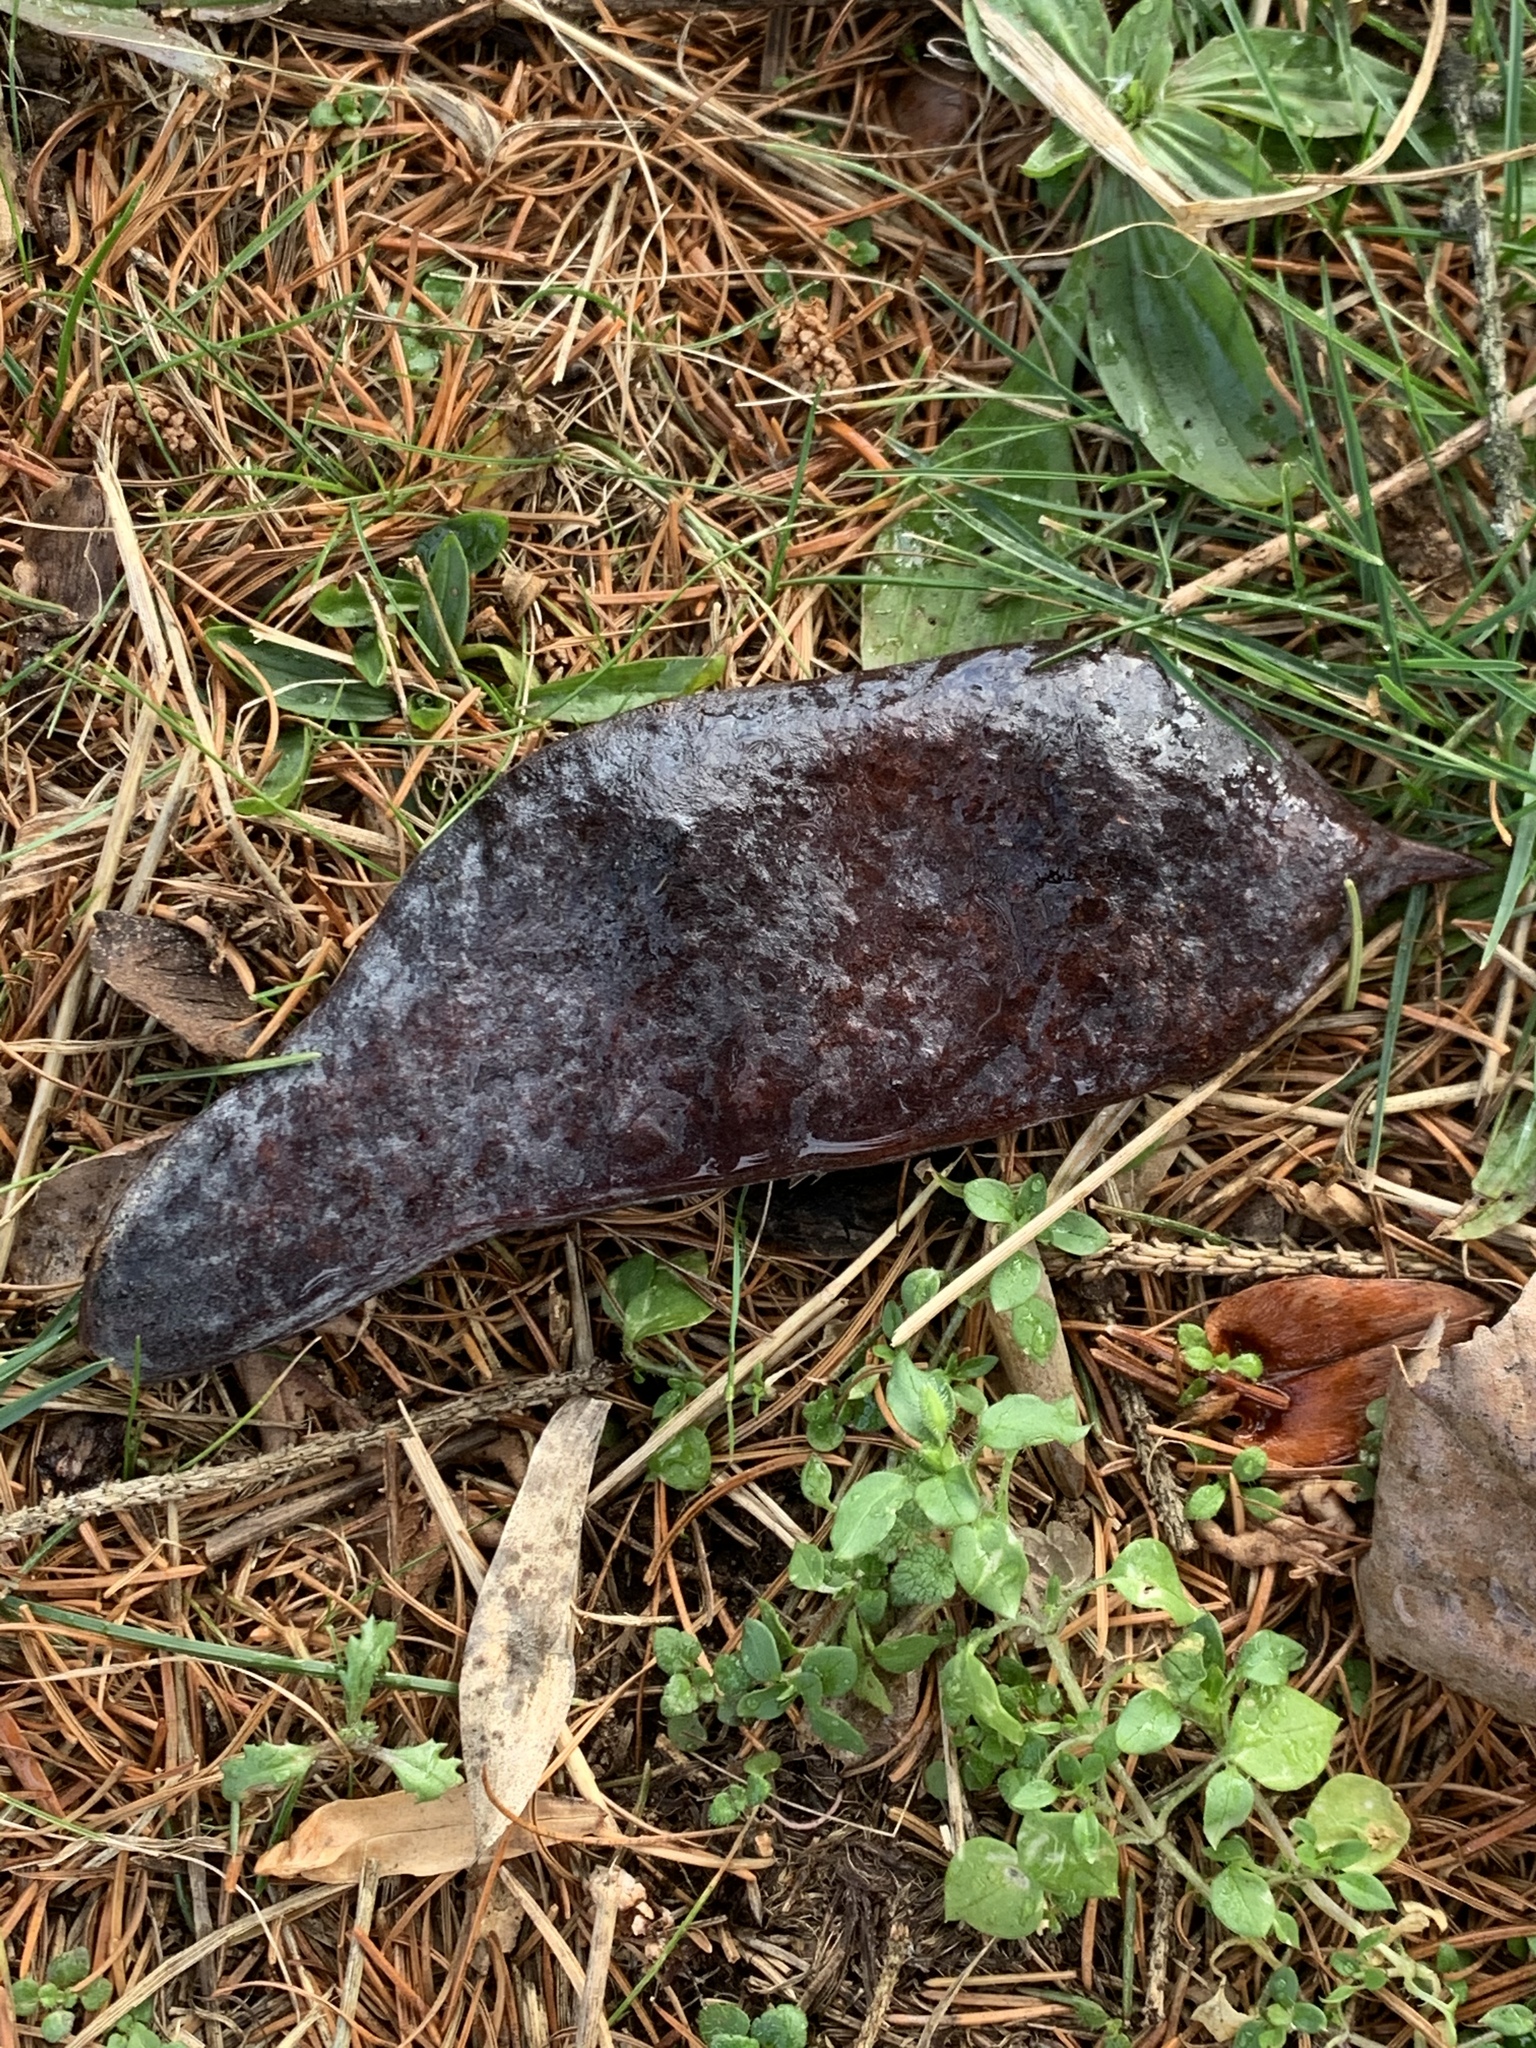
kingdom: Plantae
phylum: Tracheophyta
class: Magnoliopsida
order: Fabales
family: Fabaceae
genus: Gymnocladus
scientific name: Gymnocladus dioicus
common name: Kentucky coffee-tree
